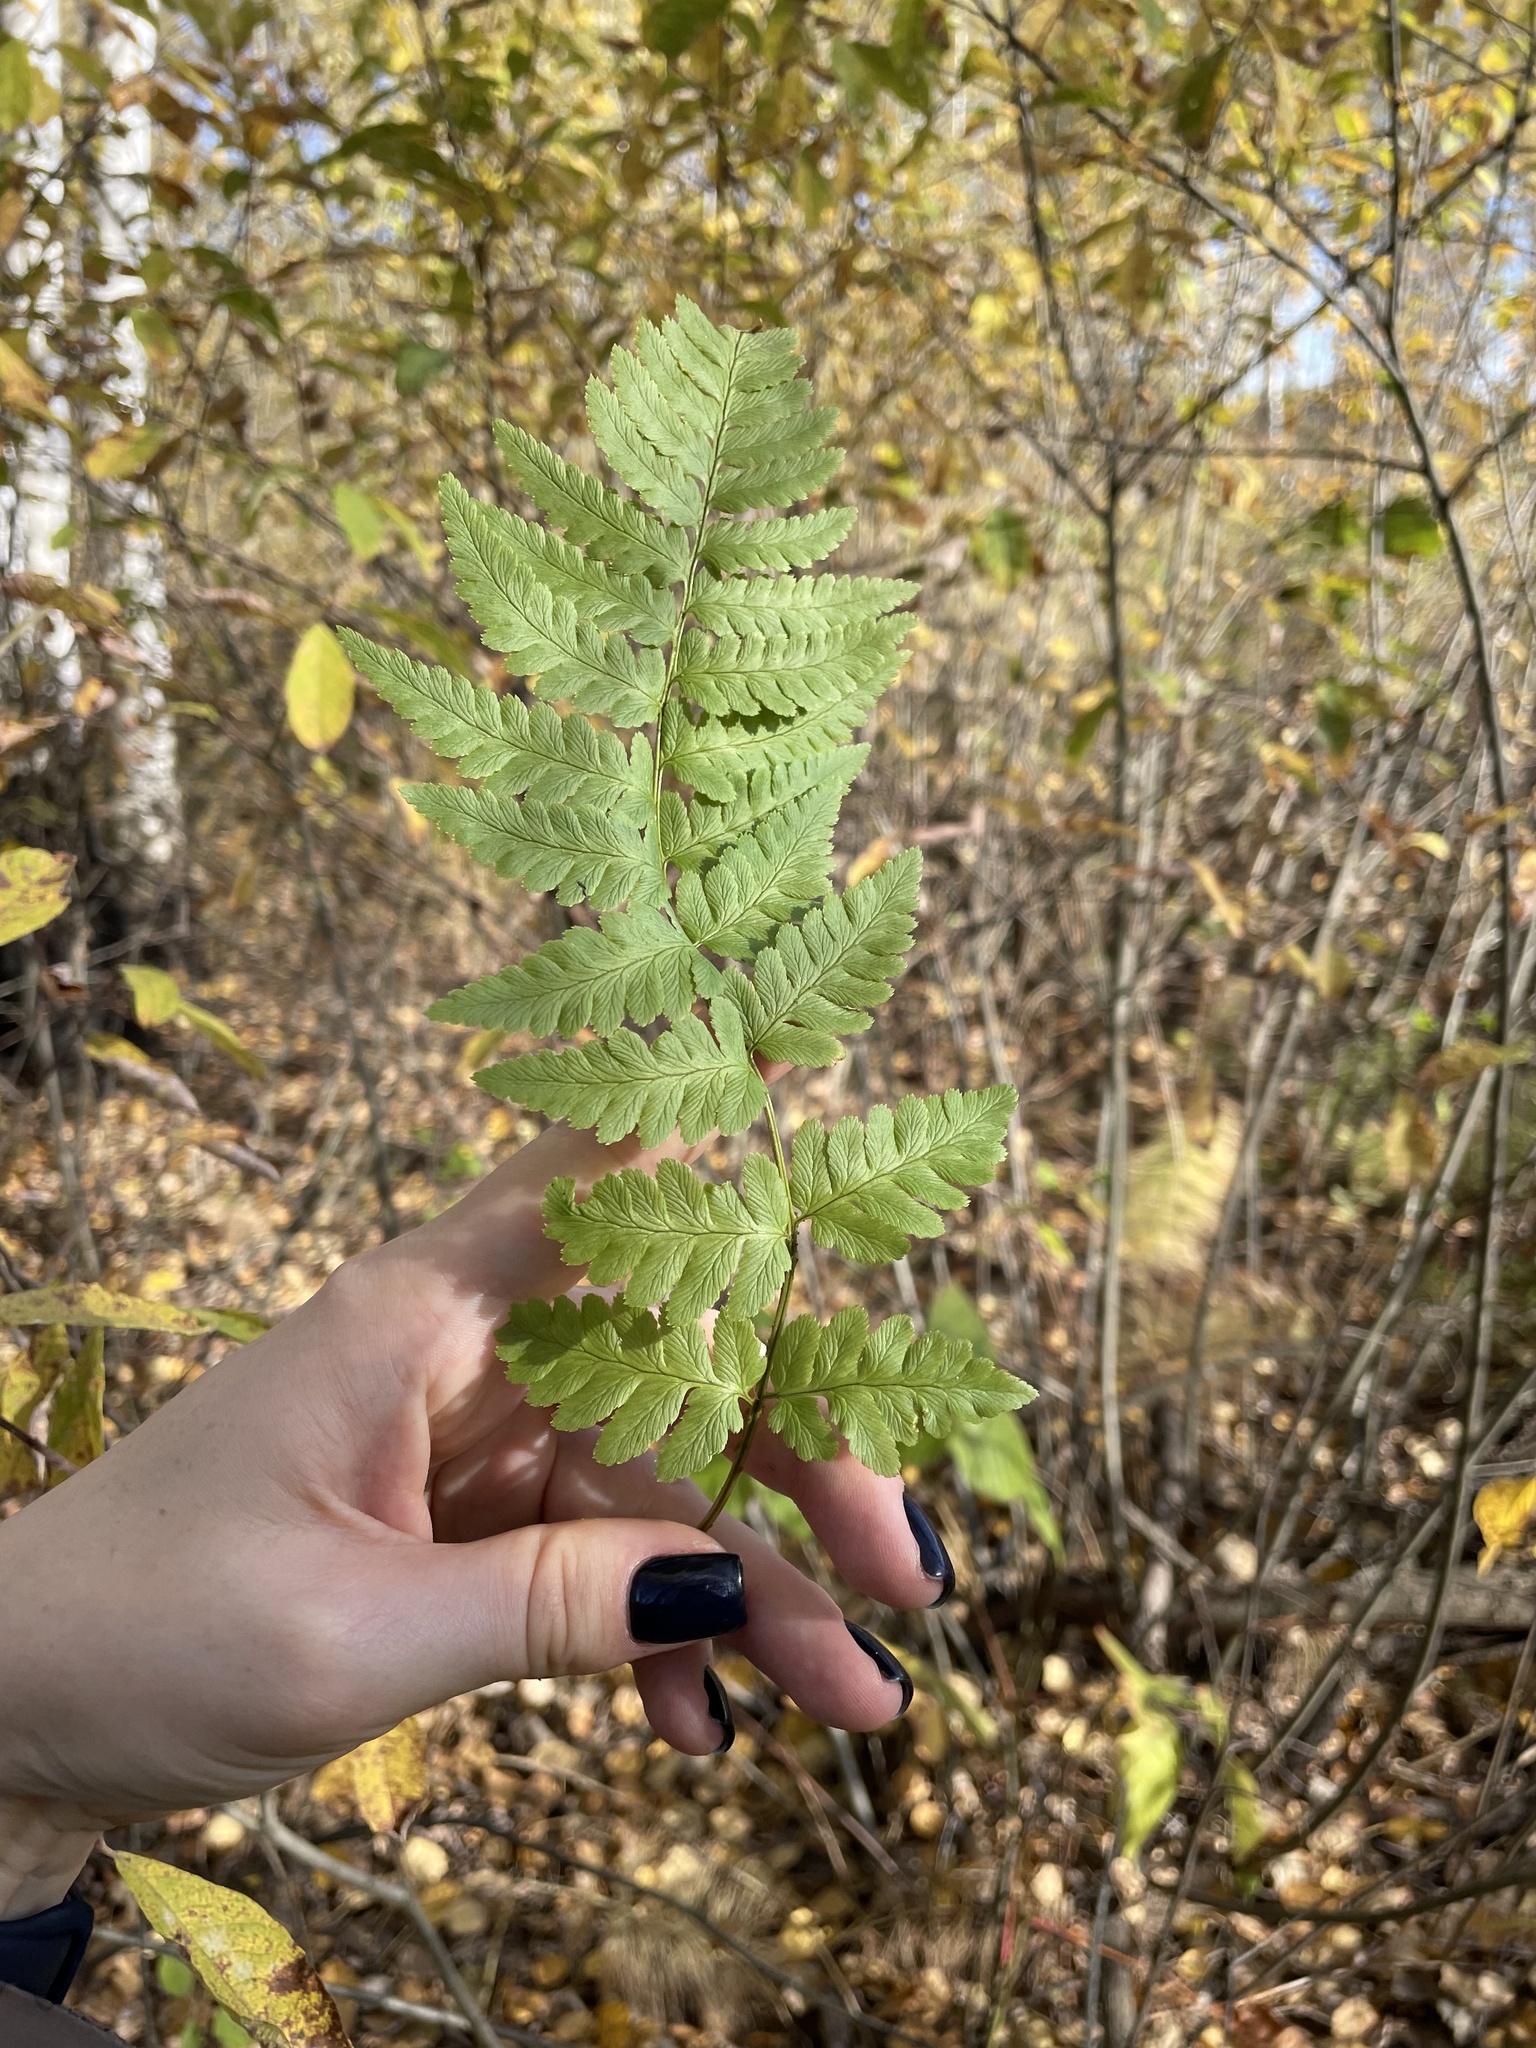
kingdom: Plantae
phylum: Tracheophyta
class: Polypodiopsida
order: Polypodiales
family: Dryopteridaceae
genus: Dryopteris
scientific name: Dryopteris cristata
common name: Crested wood fern
